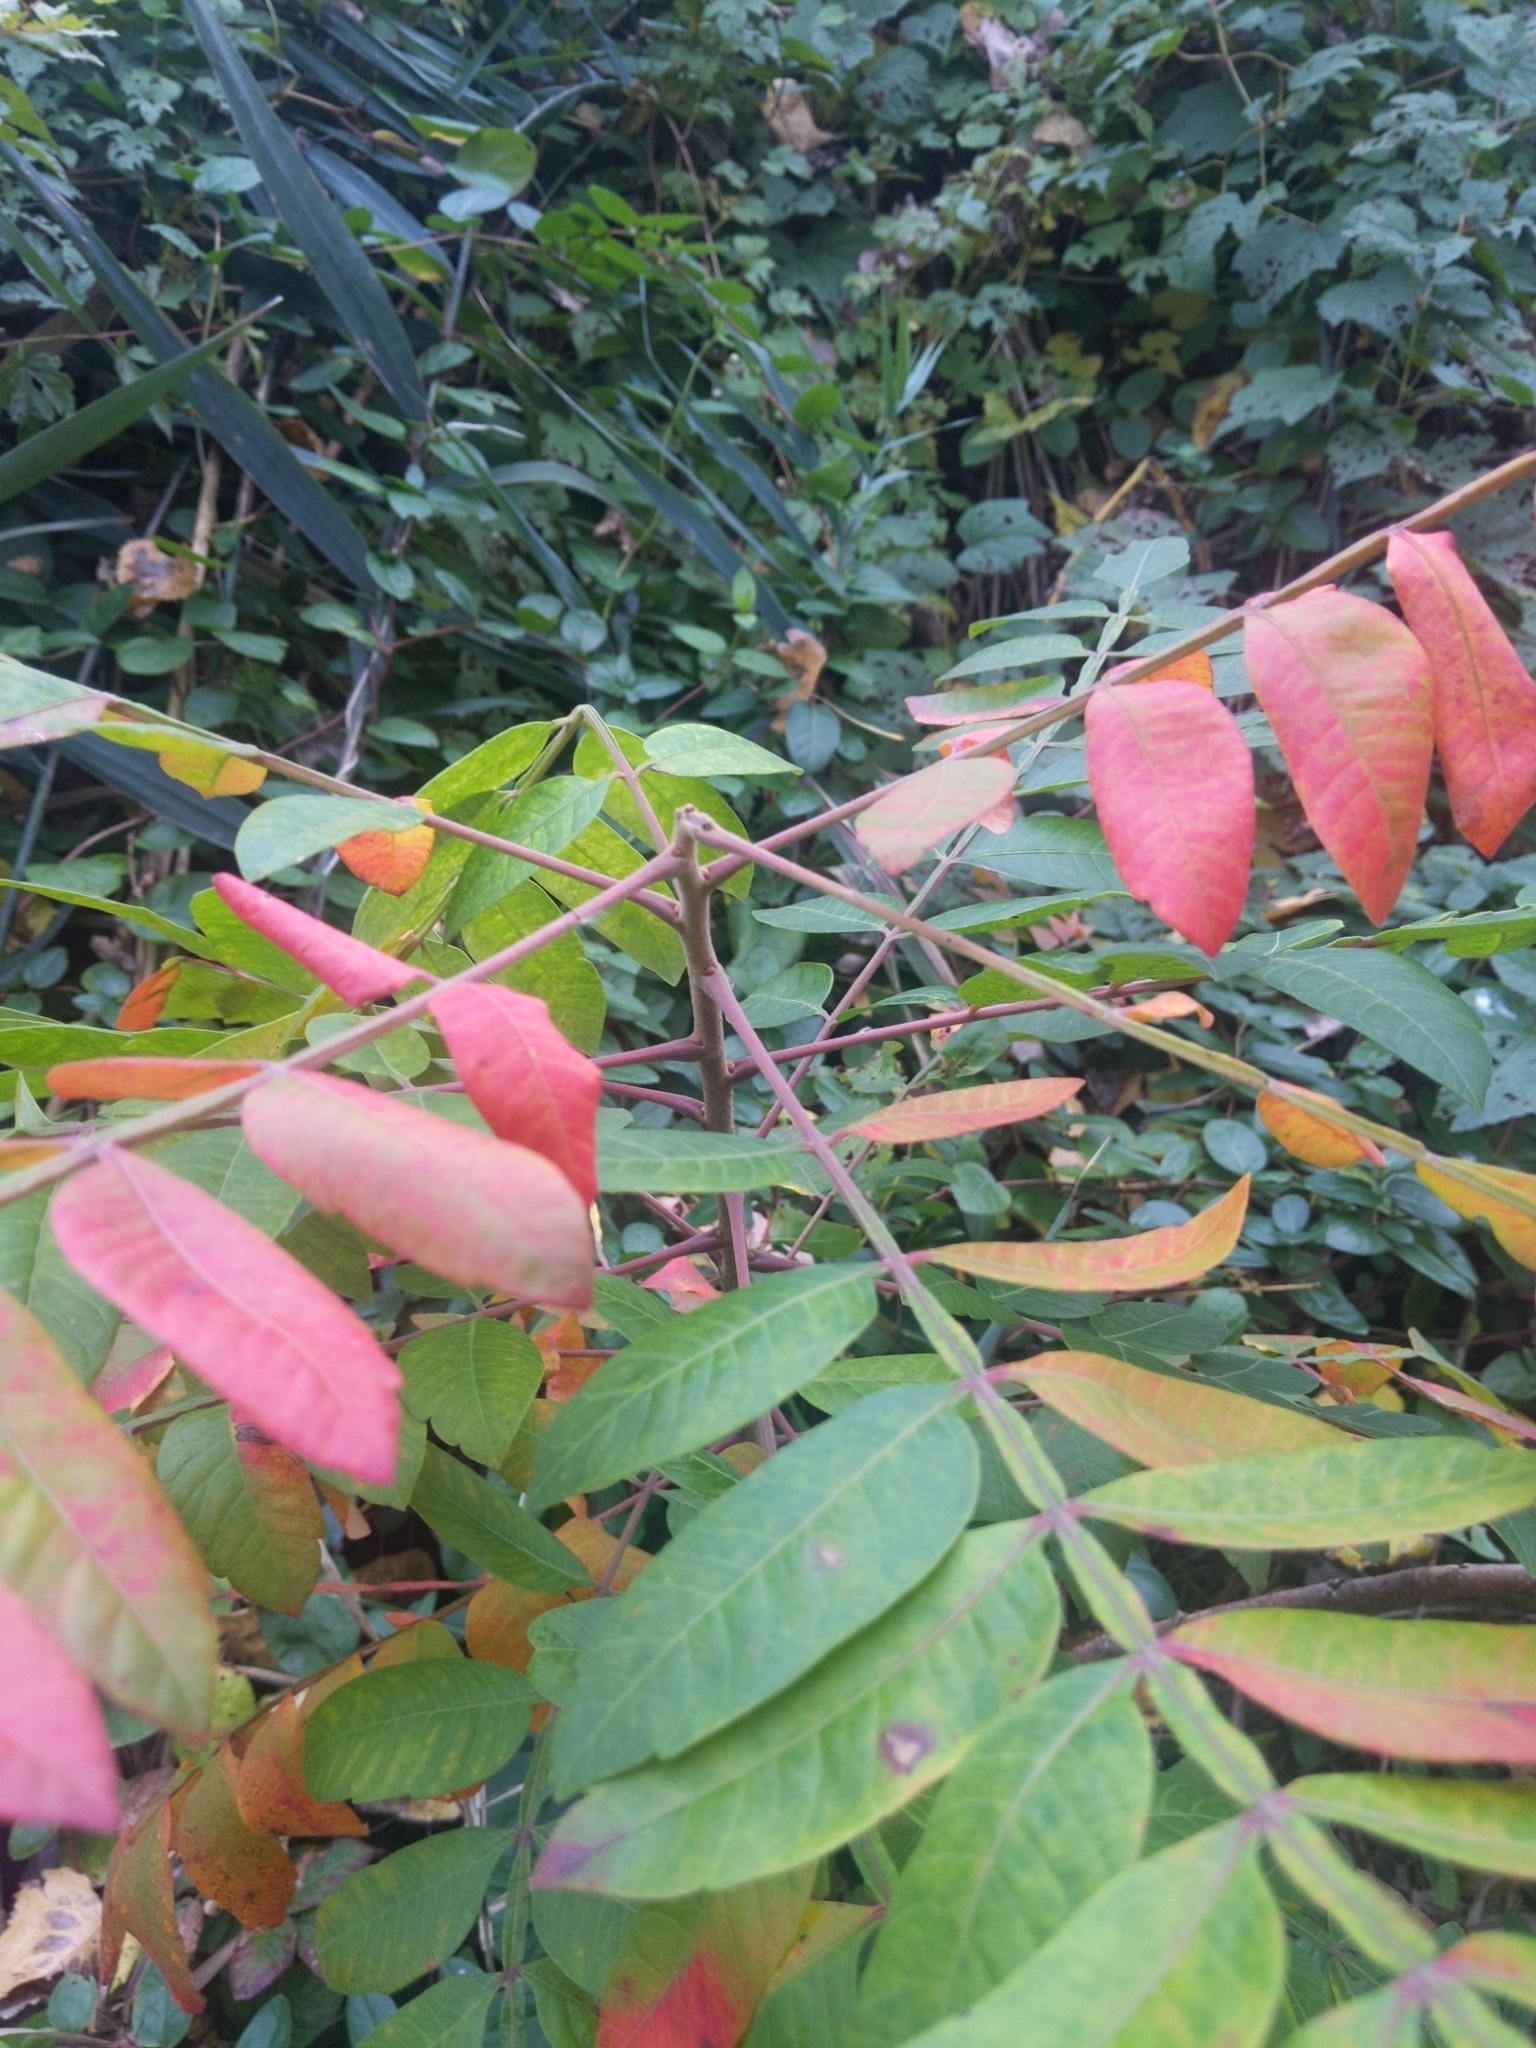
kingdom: Plantae
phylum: Tracheophyta
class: Magnoliopsida
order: Sapindales
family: Anacardiaceae
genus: Rhus
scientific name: Rhus copallina
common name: Shining sumac
